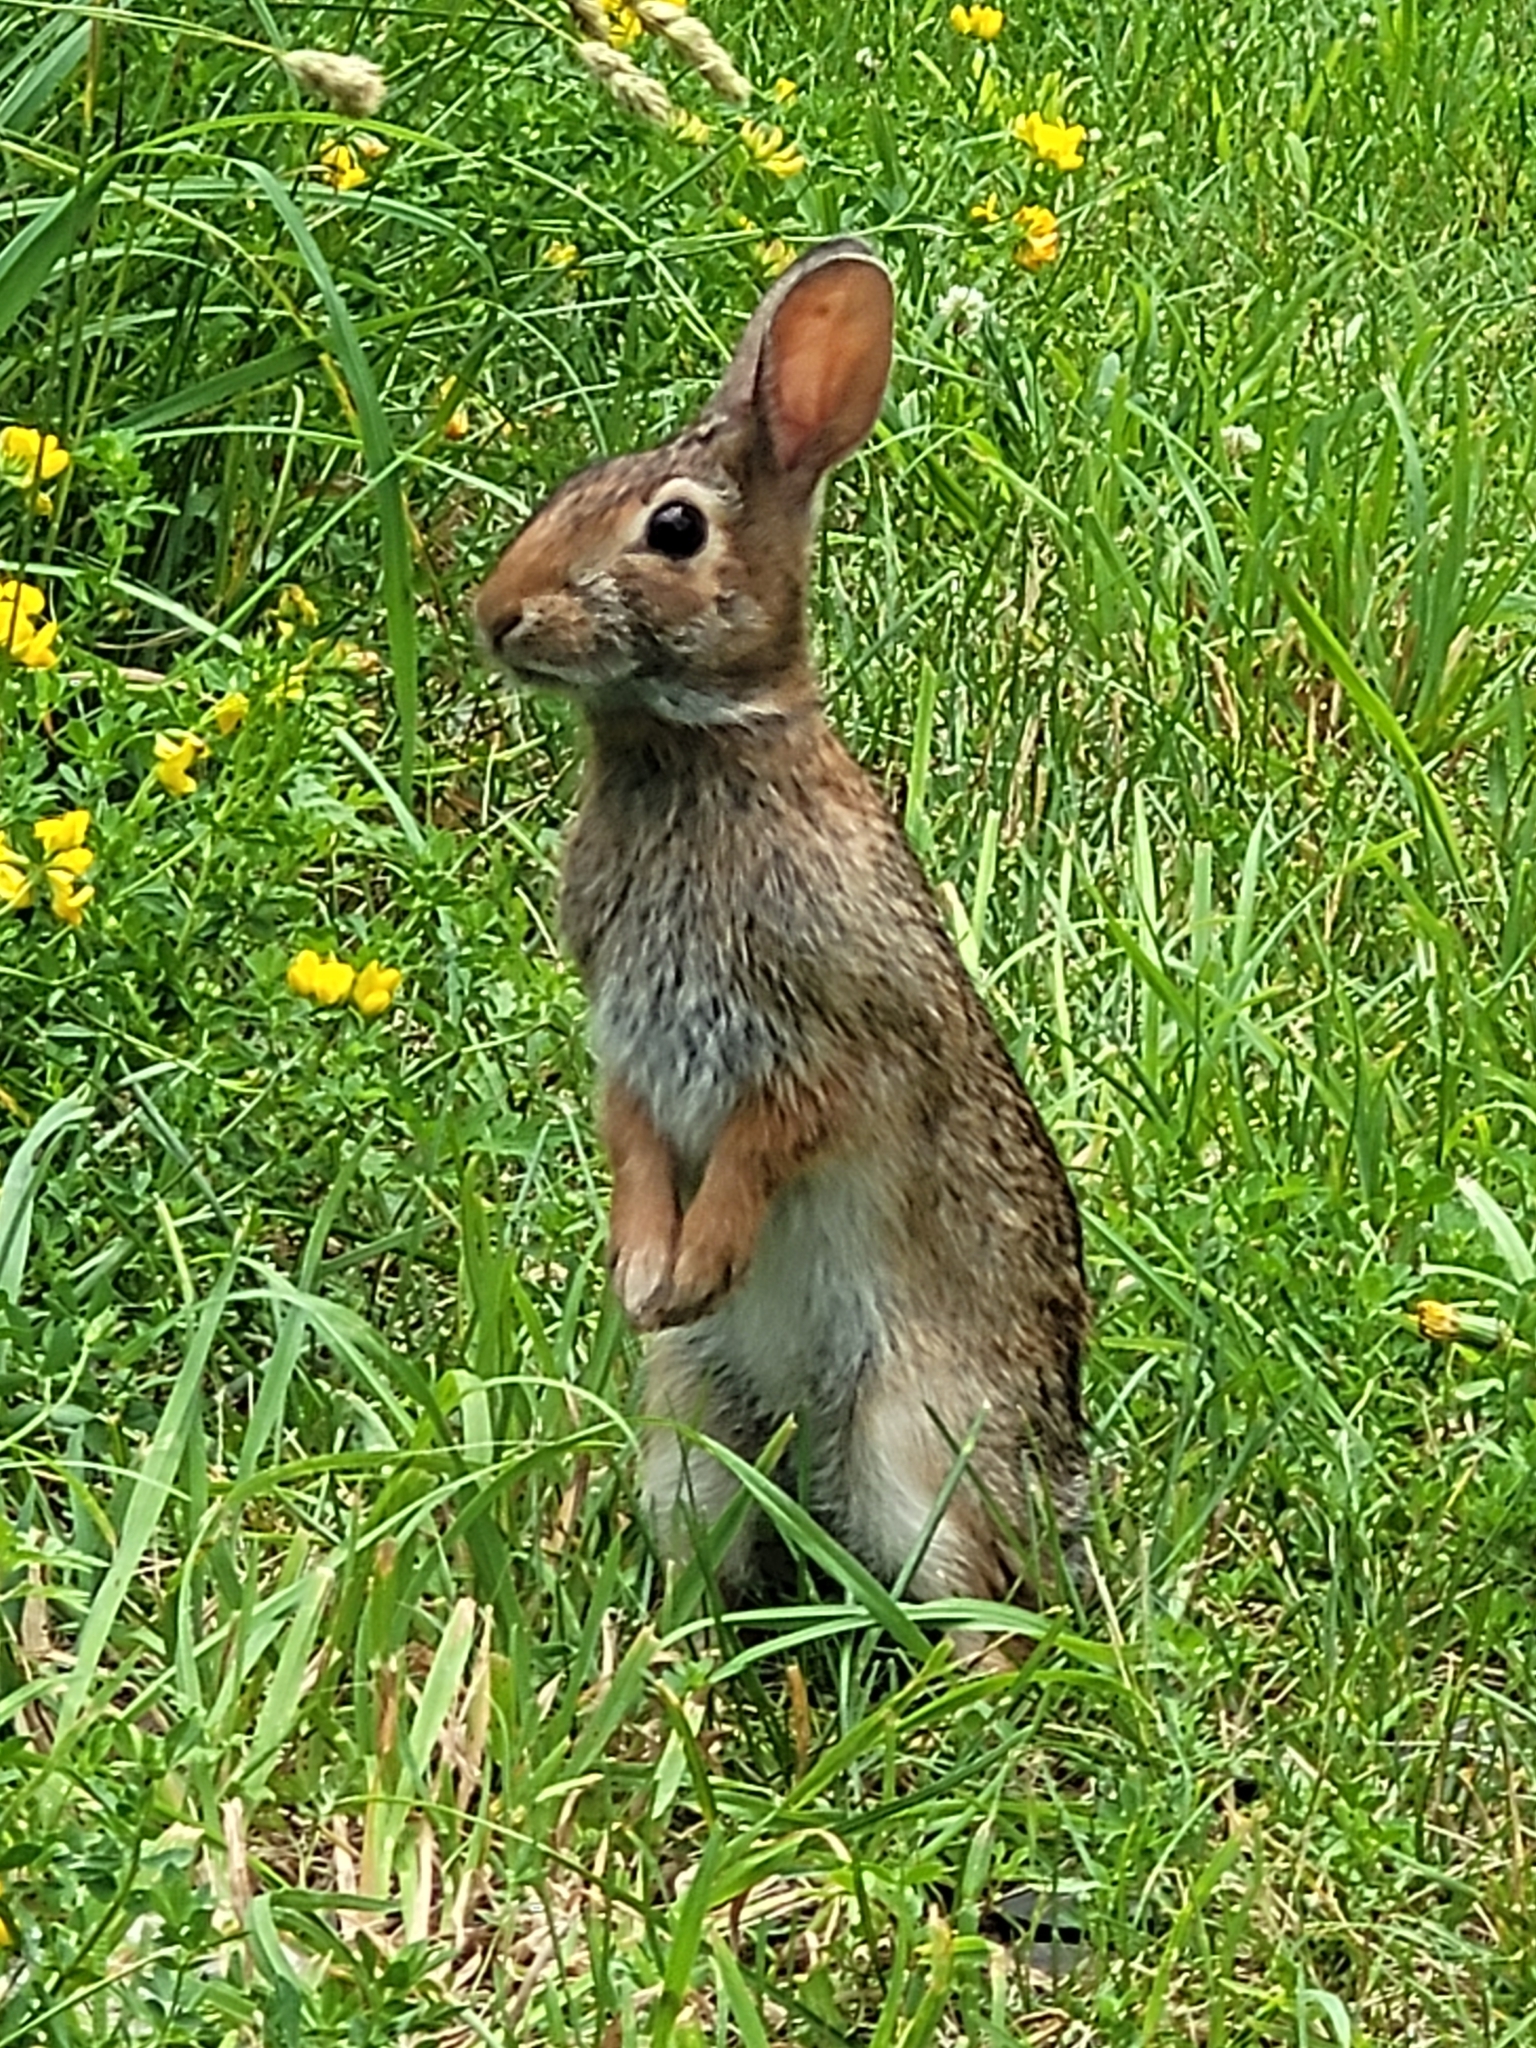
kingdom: Animalia
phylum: Chordata
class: Mammalia
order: Lagomorpha
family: Leporidae
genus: Sylvilagus
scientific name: Sylvilagus floridanus
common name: Eastern cottontail
